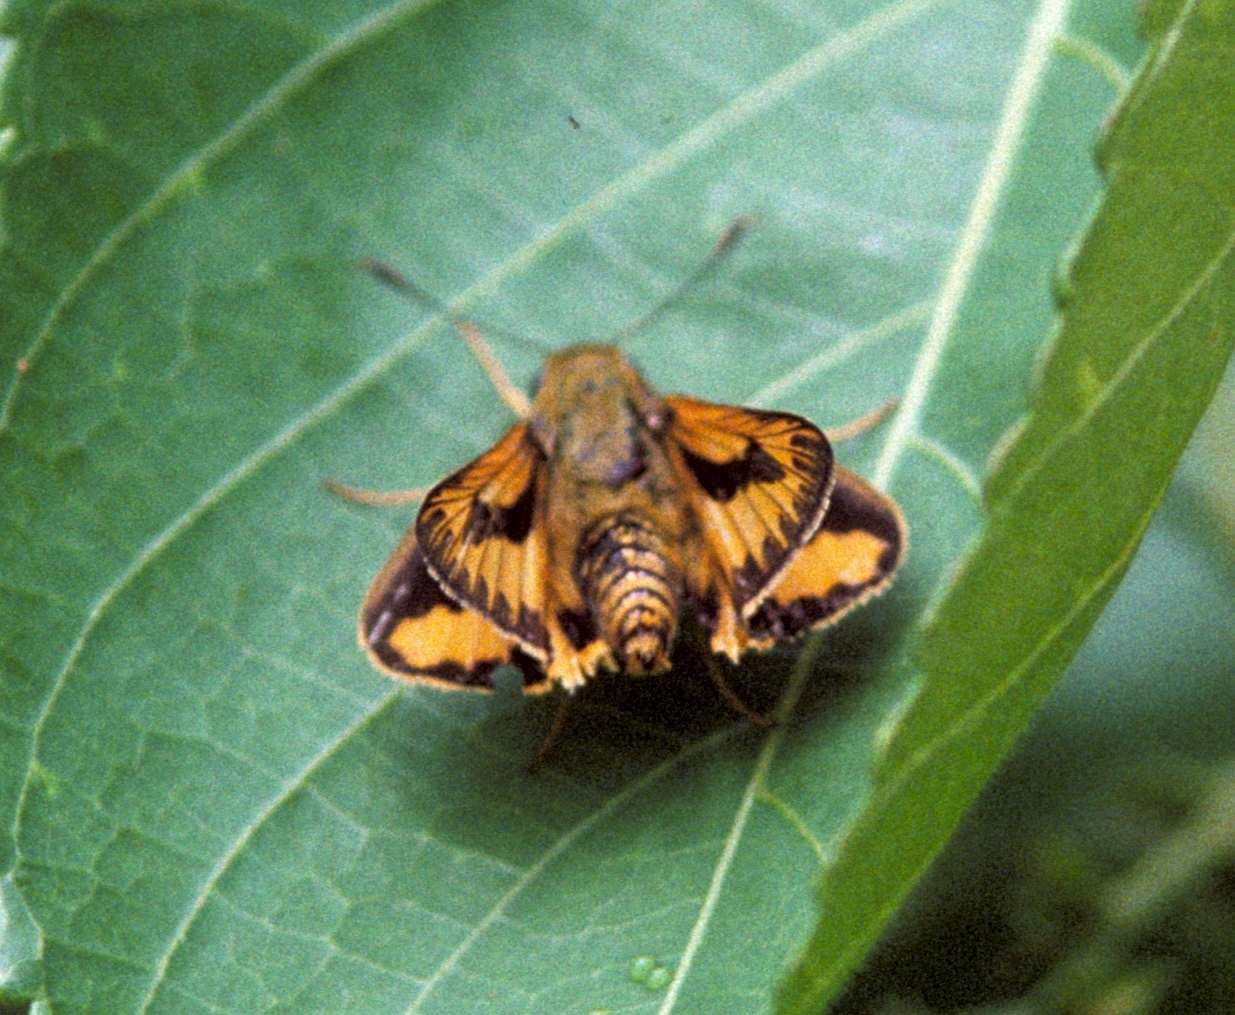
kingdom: Animalia
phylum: Arthropoda
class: Insecta
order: Lepidoptera
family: Hesperiidae
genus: Cephrenes
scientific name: Cephrenes trichopepla
